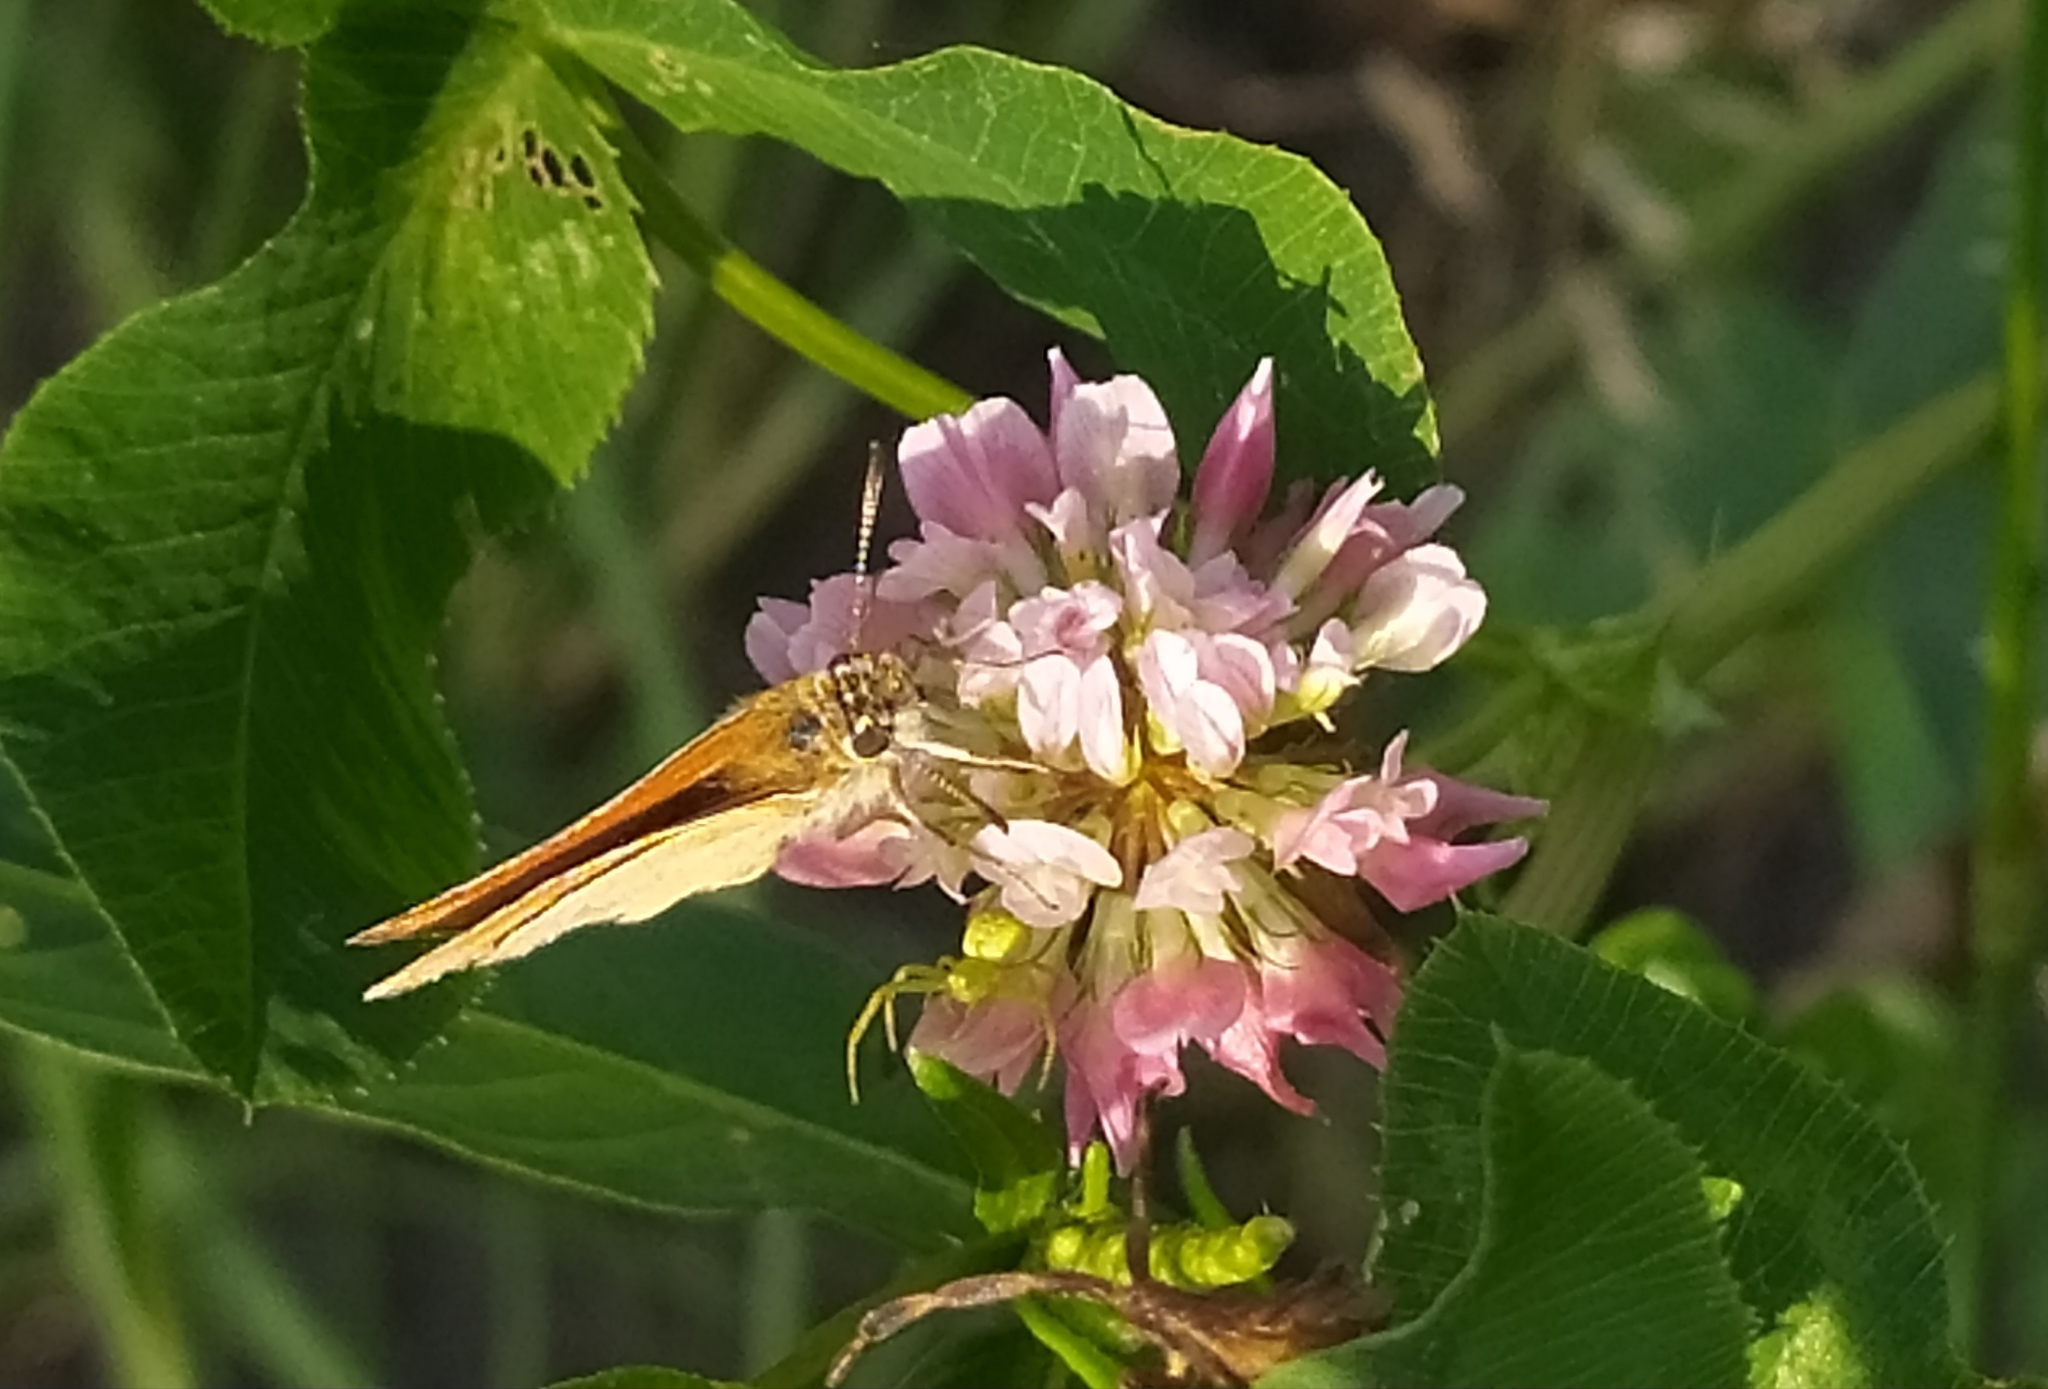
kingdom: Animalia
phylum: Arthropoda
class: Insecta
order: Lepidoptera
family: Hesperiidae
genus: Thymelicus
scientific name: Thymelicus lineola
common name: Essex skipper
